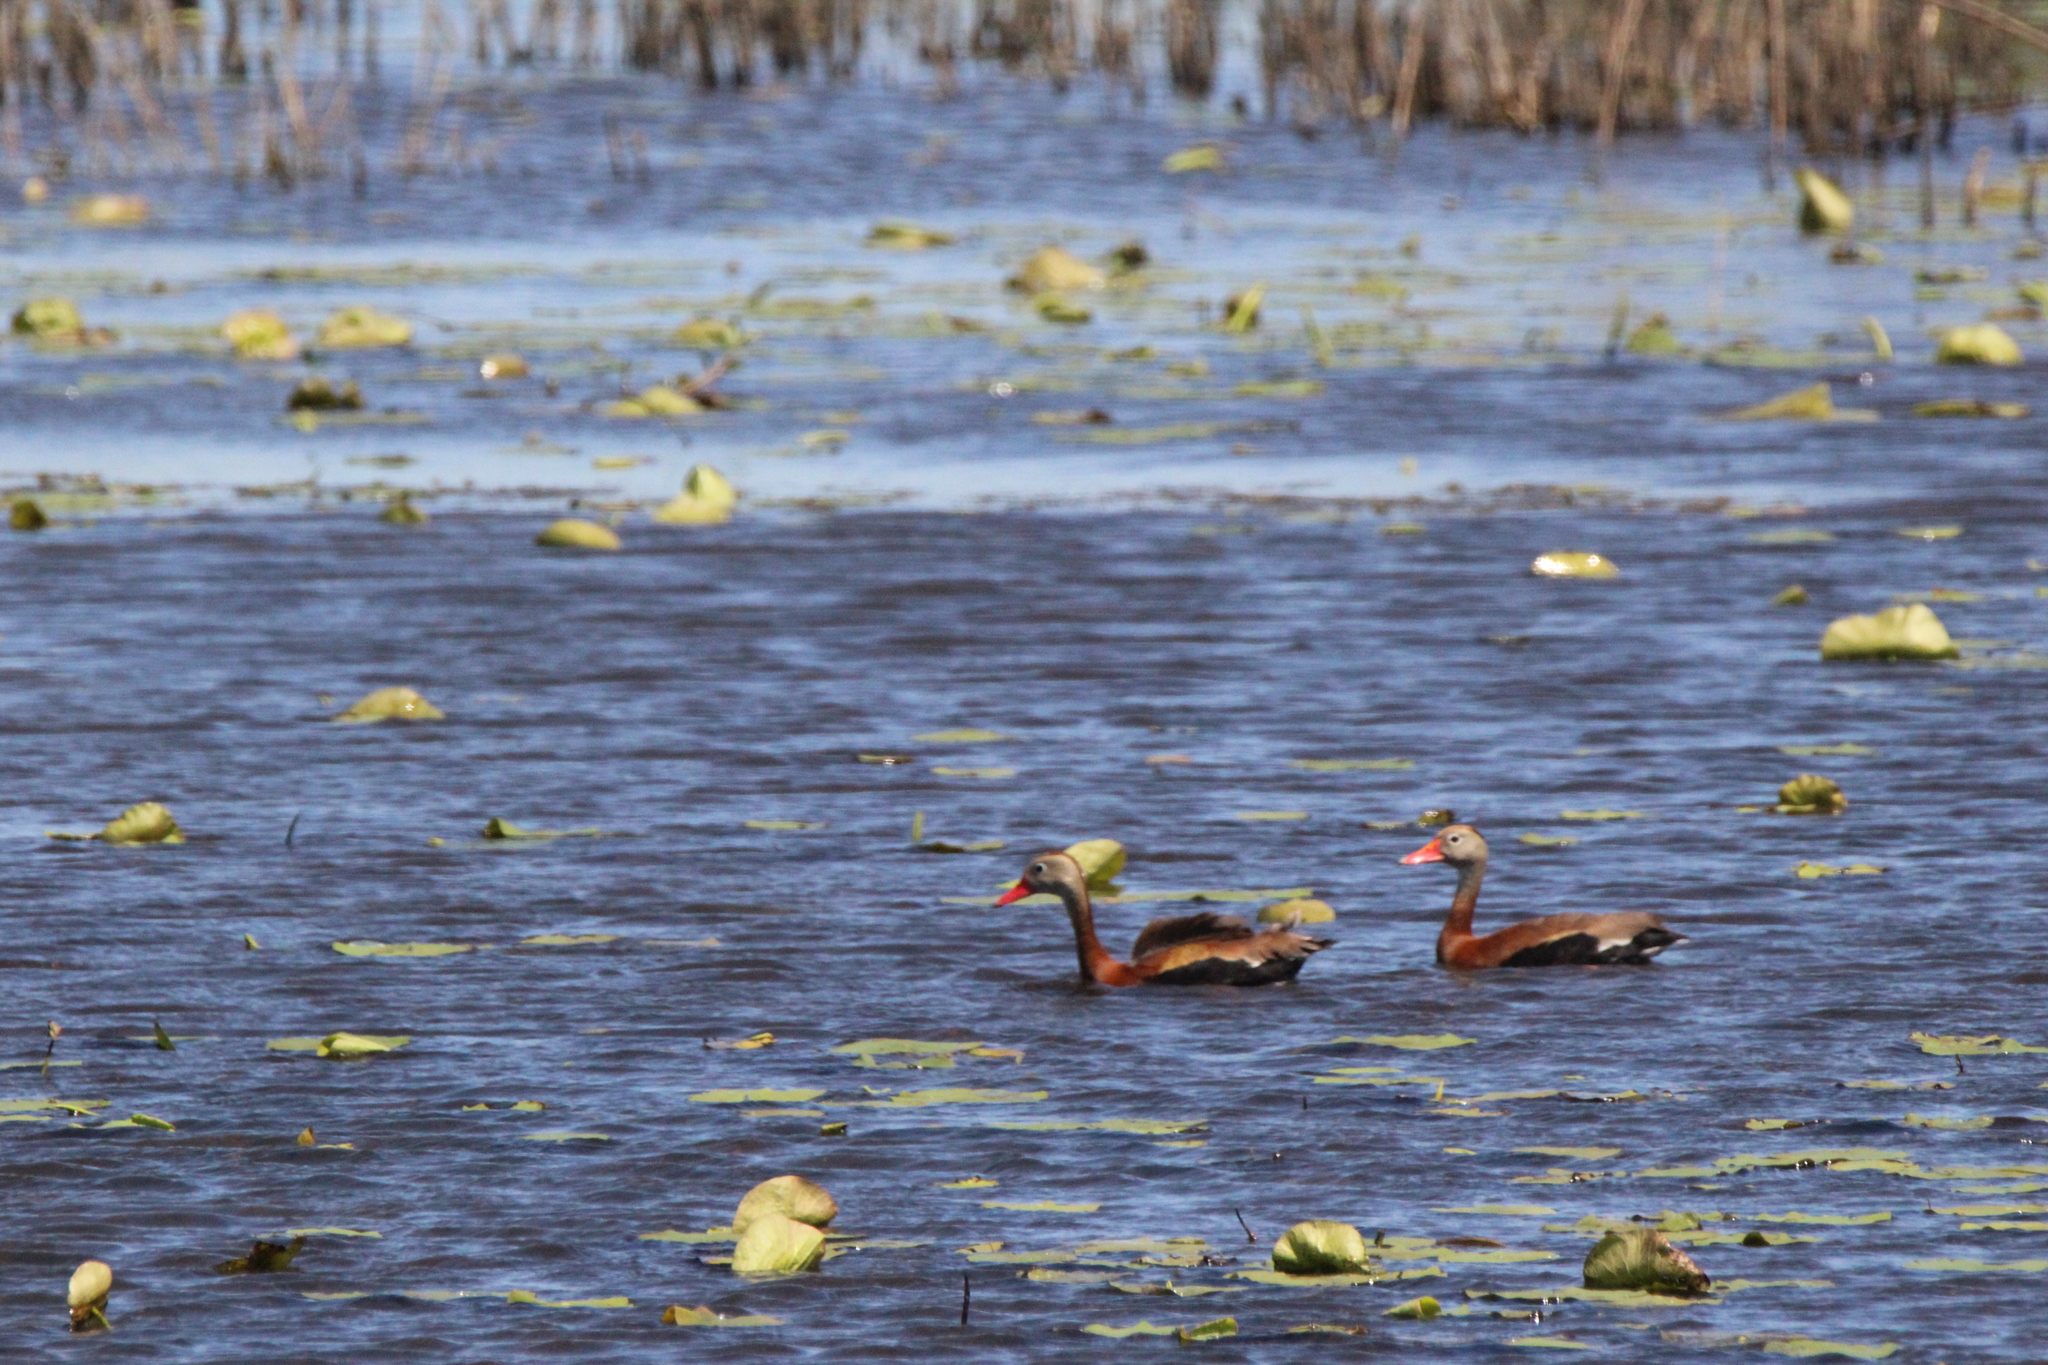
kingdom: Animalia
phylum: Chordata
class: Aves
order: Anseriformes
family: Anatidae
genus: Dendrocygna
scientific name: Dendrocygna autumnalis
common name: Black-bellied whistling duck
